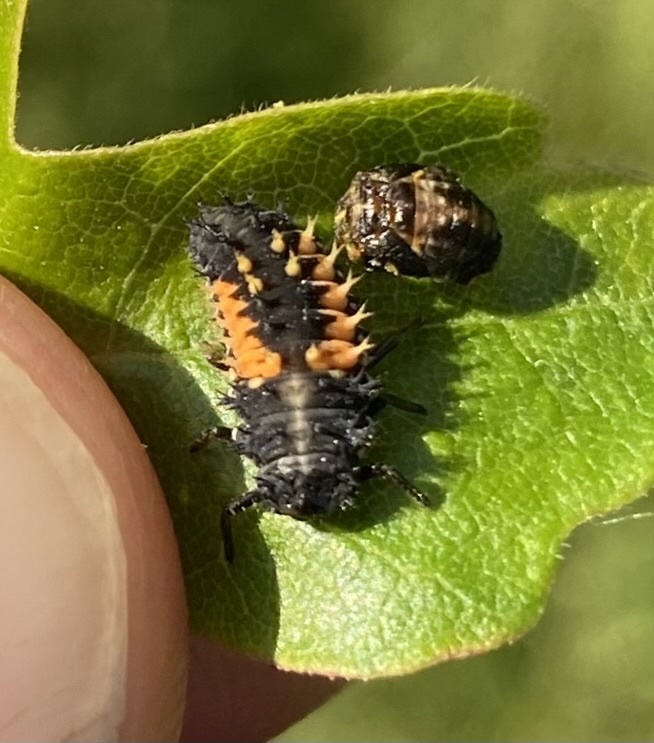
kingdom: Animalia
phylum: Arthropoda
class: Insecta
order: Coleoptera
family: Coccinellidae
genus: Harmonia
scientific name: Harmonia axyridis
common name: Harlequin ladybird
